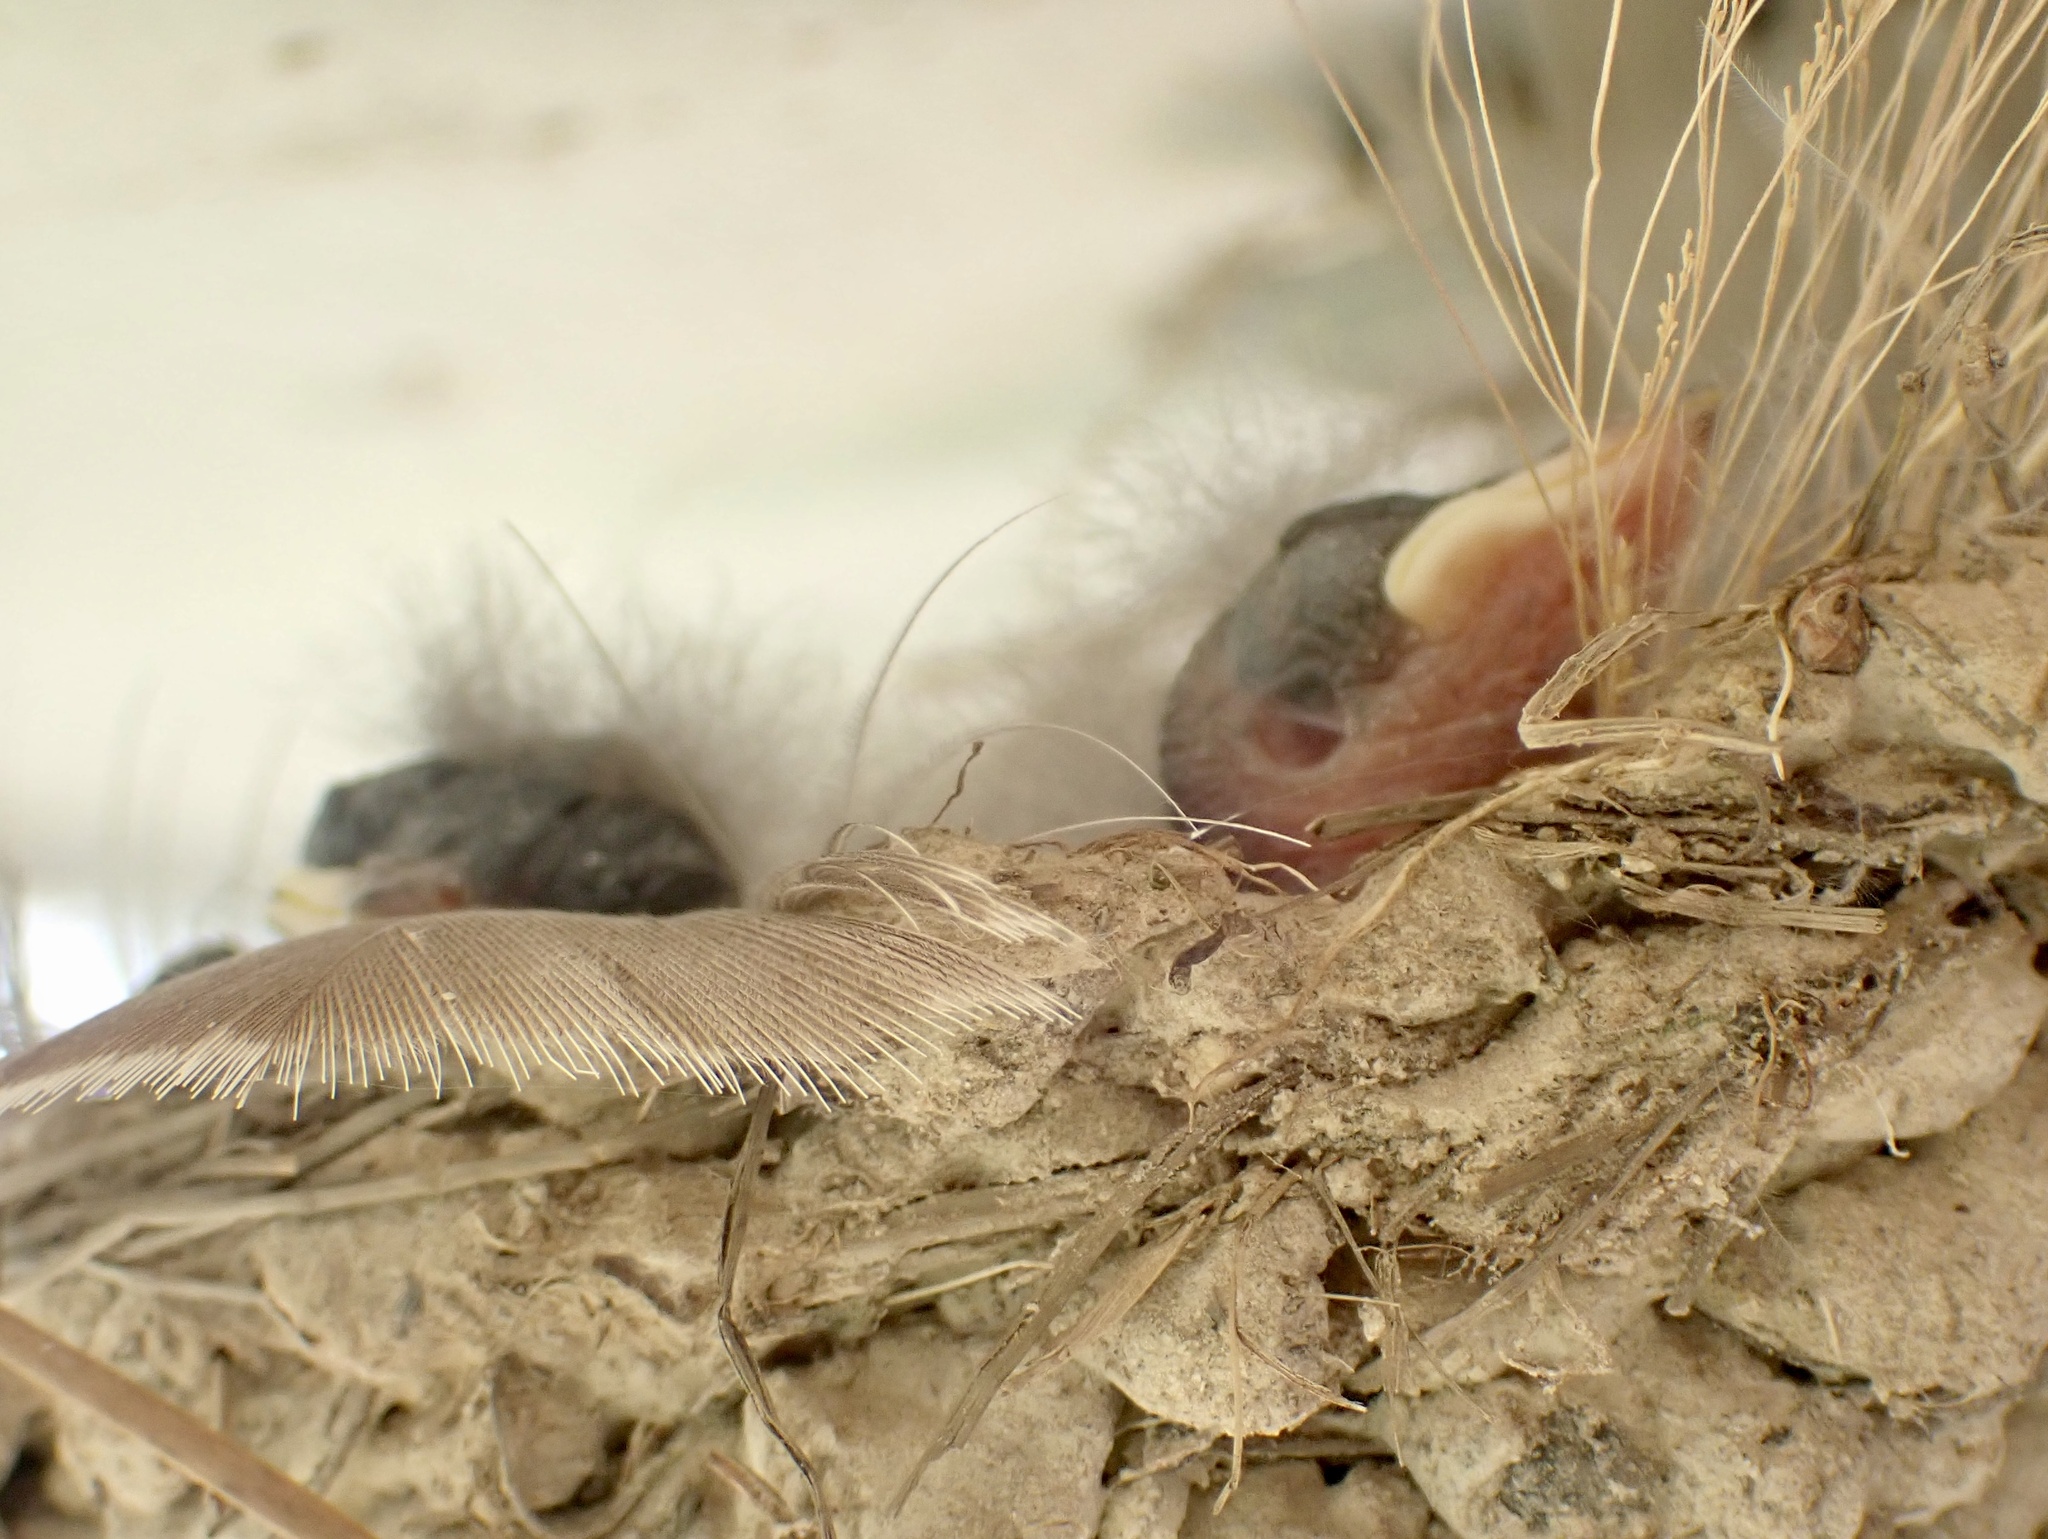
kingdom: Animalia
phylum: Chordata
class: Aves
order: Passeriformes
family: Hirundinidae
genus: Hirundo
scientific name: Hirundo rustica
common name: Barn swallow
